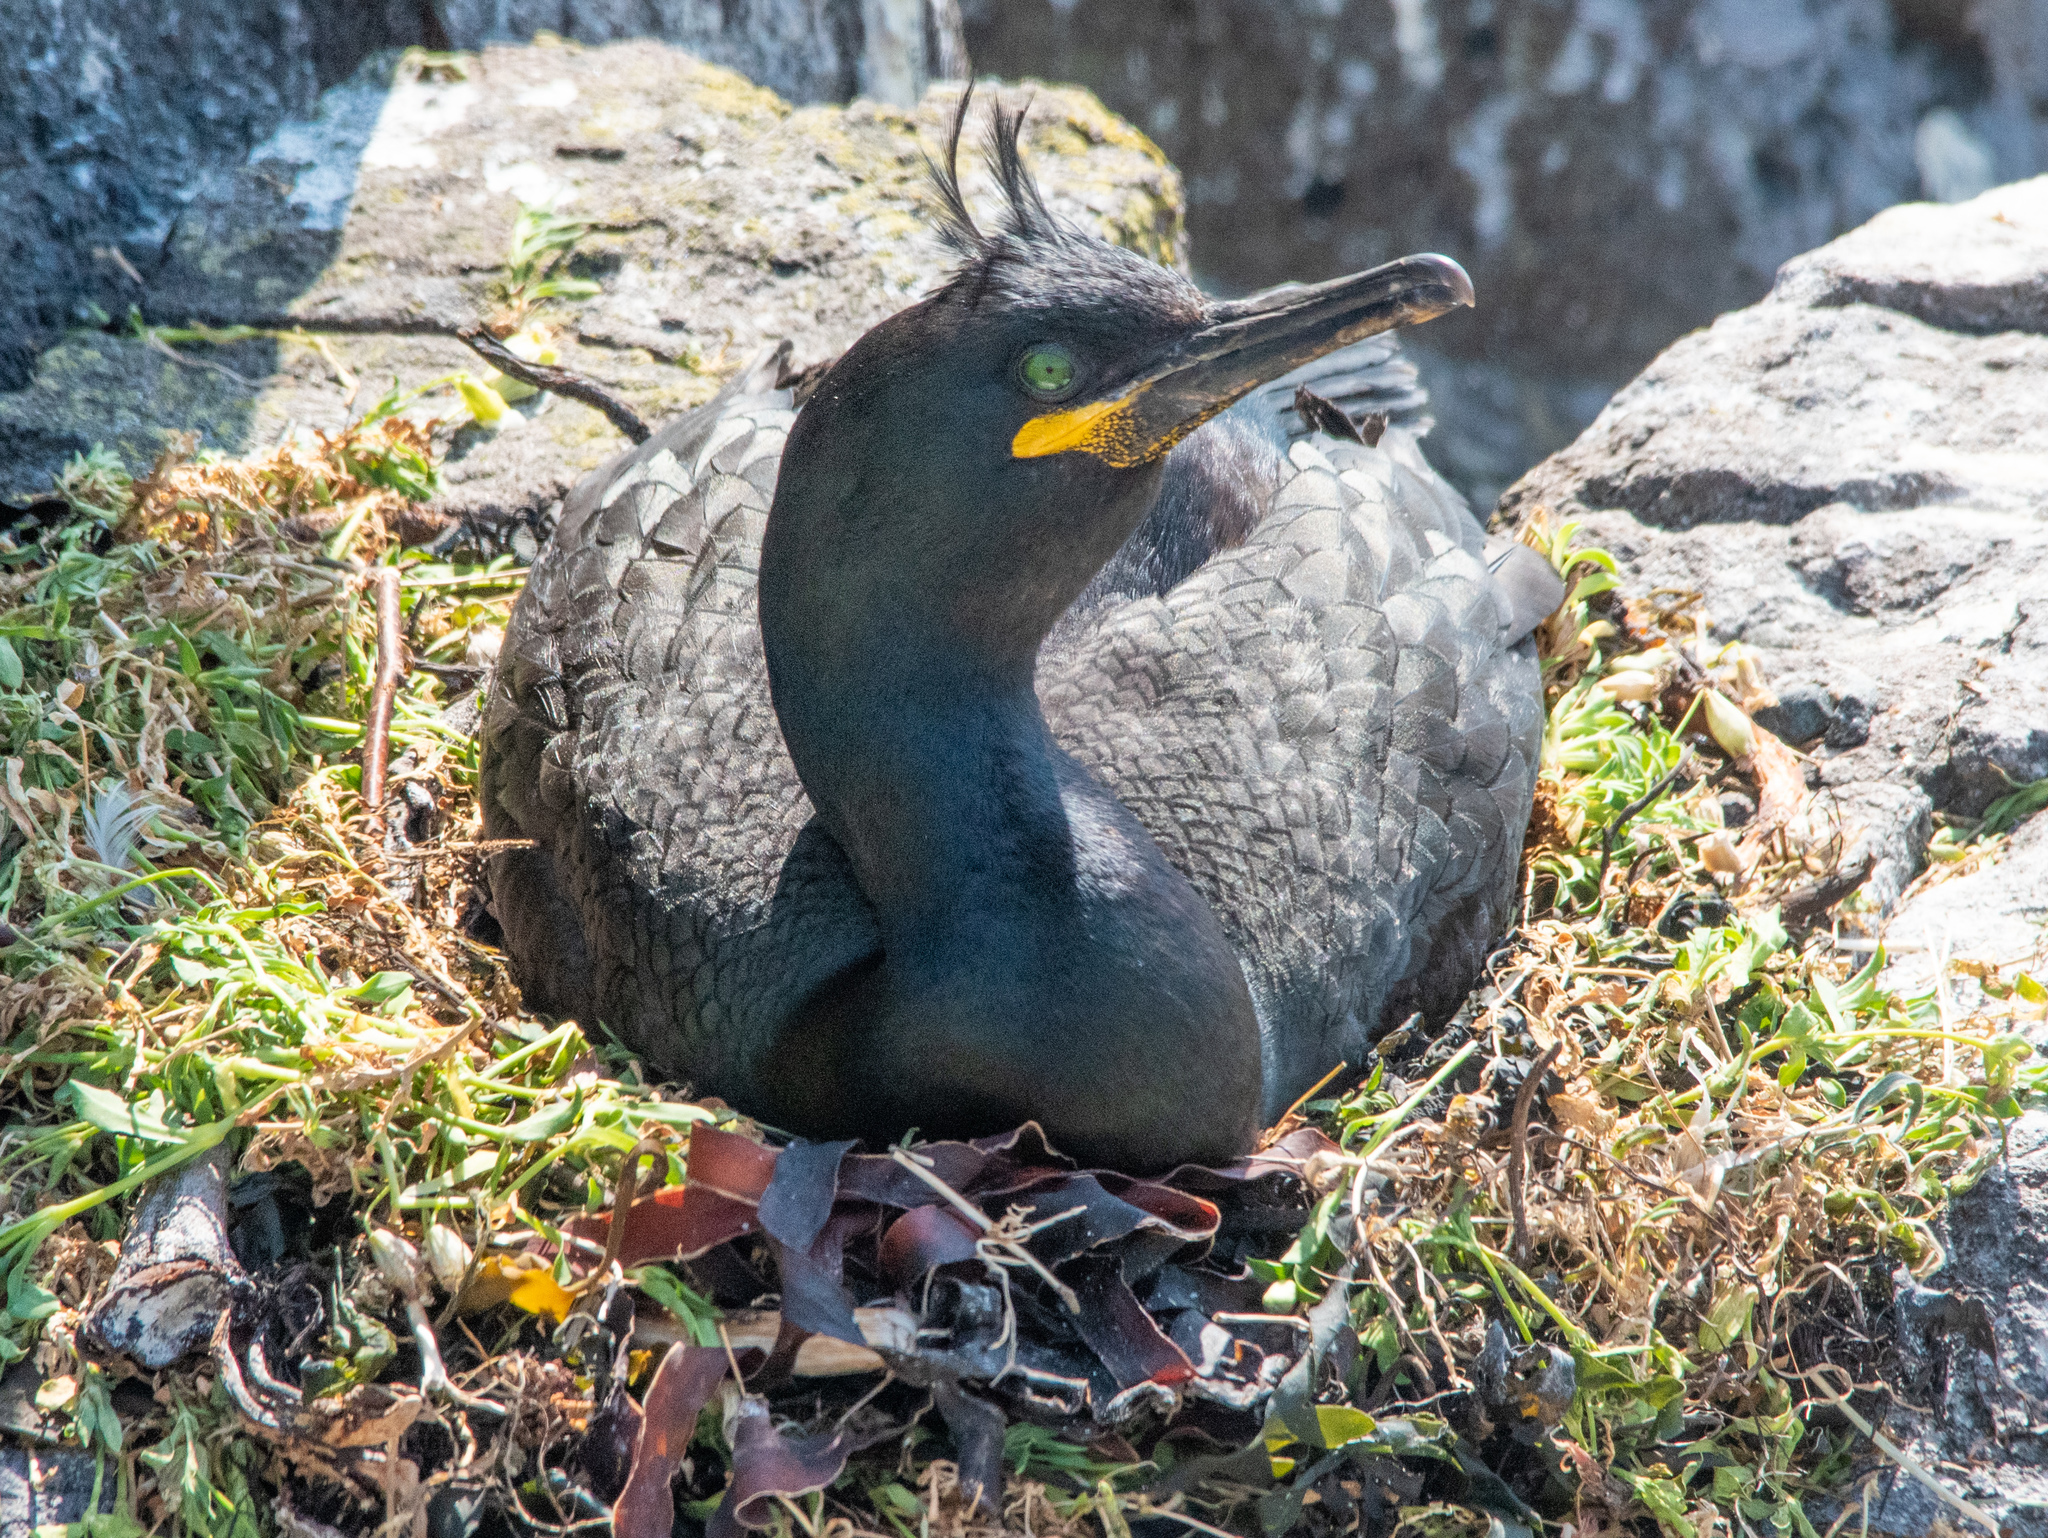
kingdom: Animalia
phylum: Chordata
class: Aves
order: Suliformes
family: Phalacrocoracidae
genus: Phalacrocorax
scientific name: Phalacrocorax aristotelis
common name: European shag
